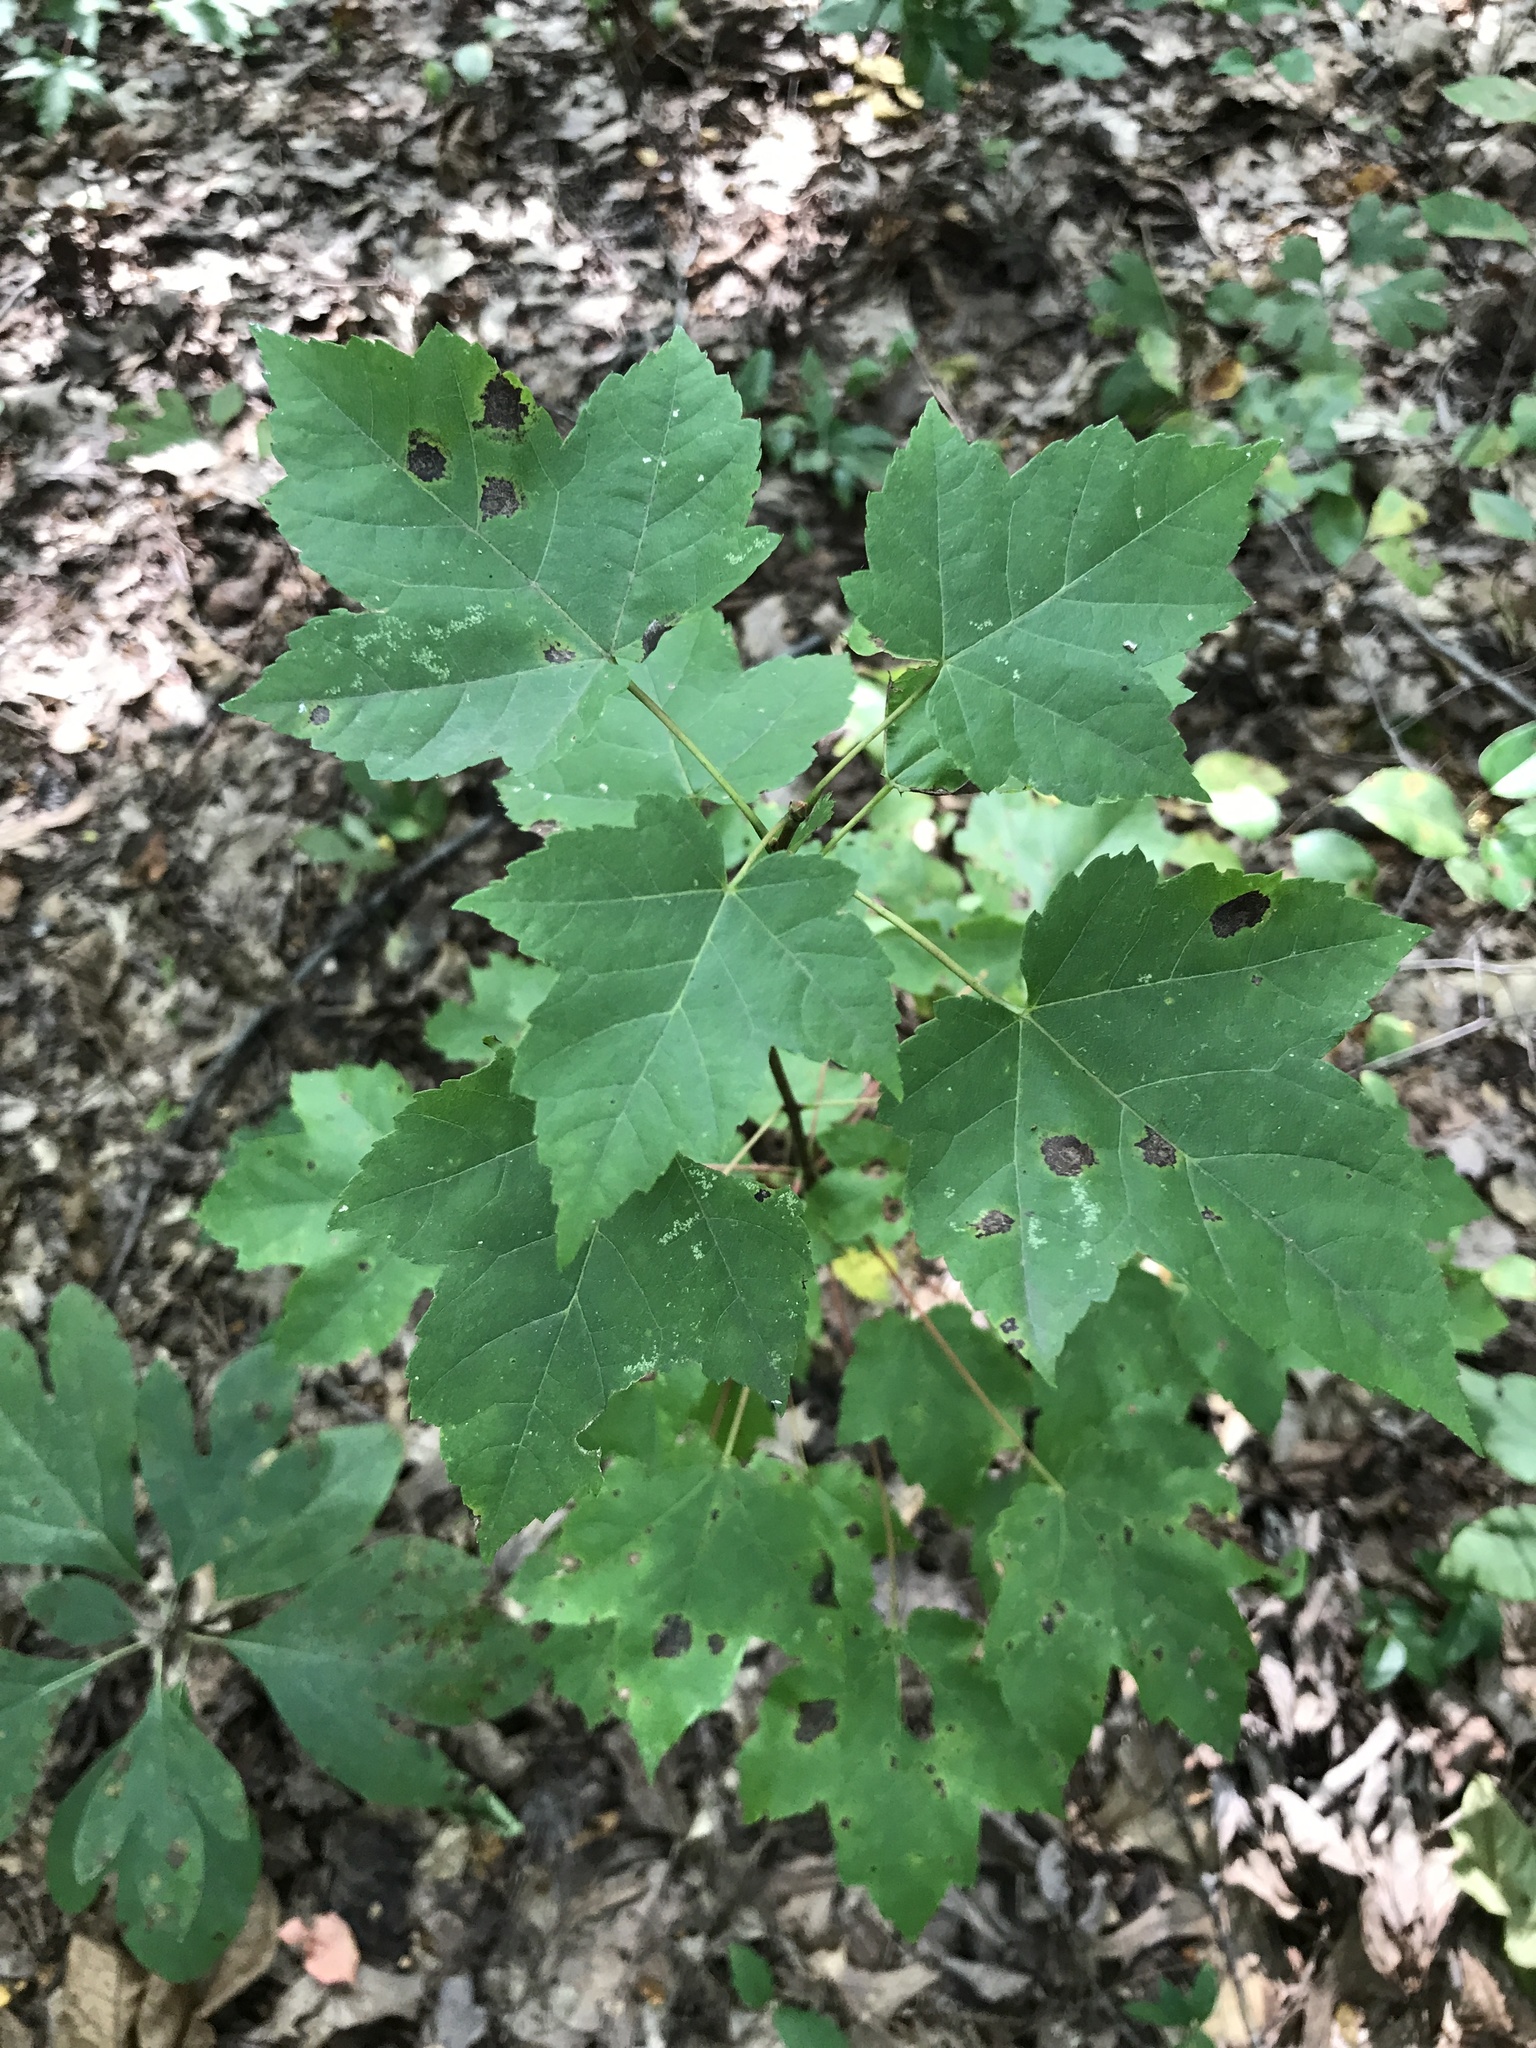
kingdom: Plantae
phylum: Tracheophyta
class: Magnoliopsida
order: Sapindales
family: Sapindaceae
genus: Acer
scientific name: Acer rubrum
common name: Red maple
